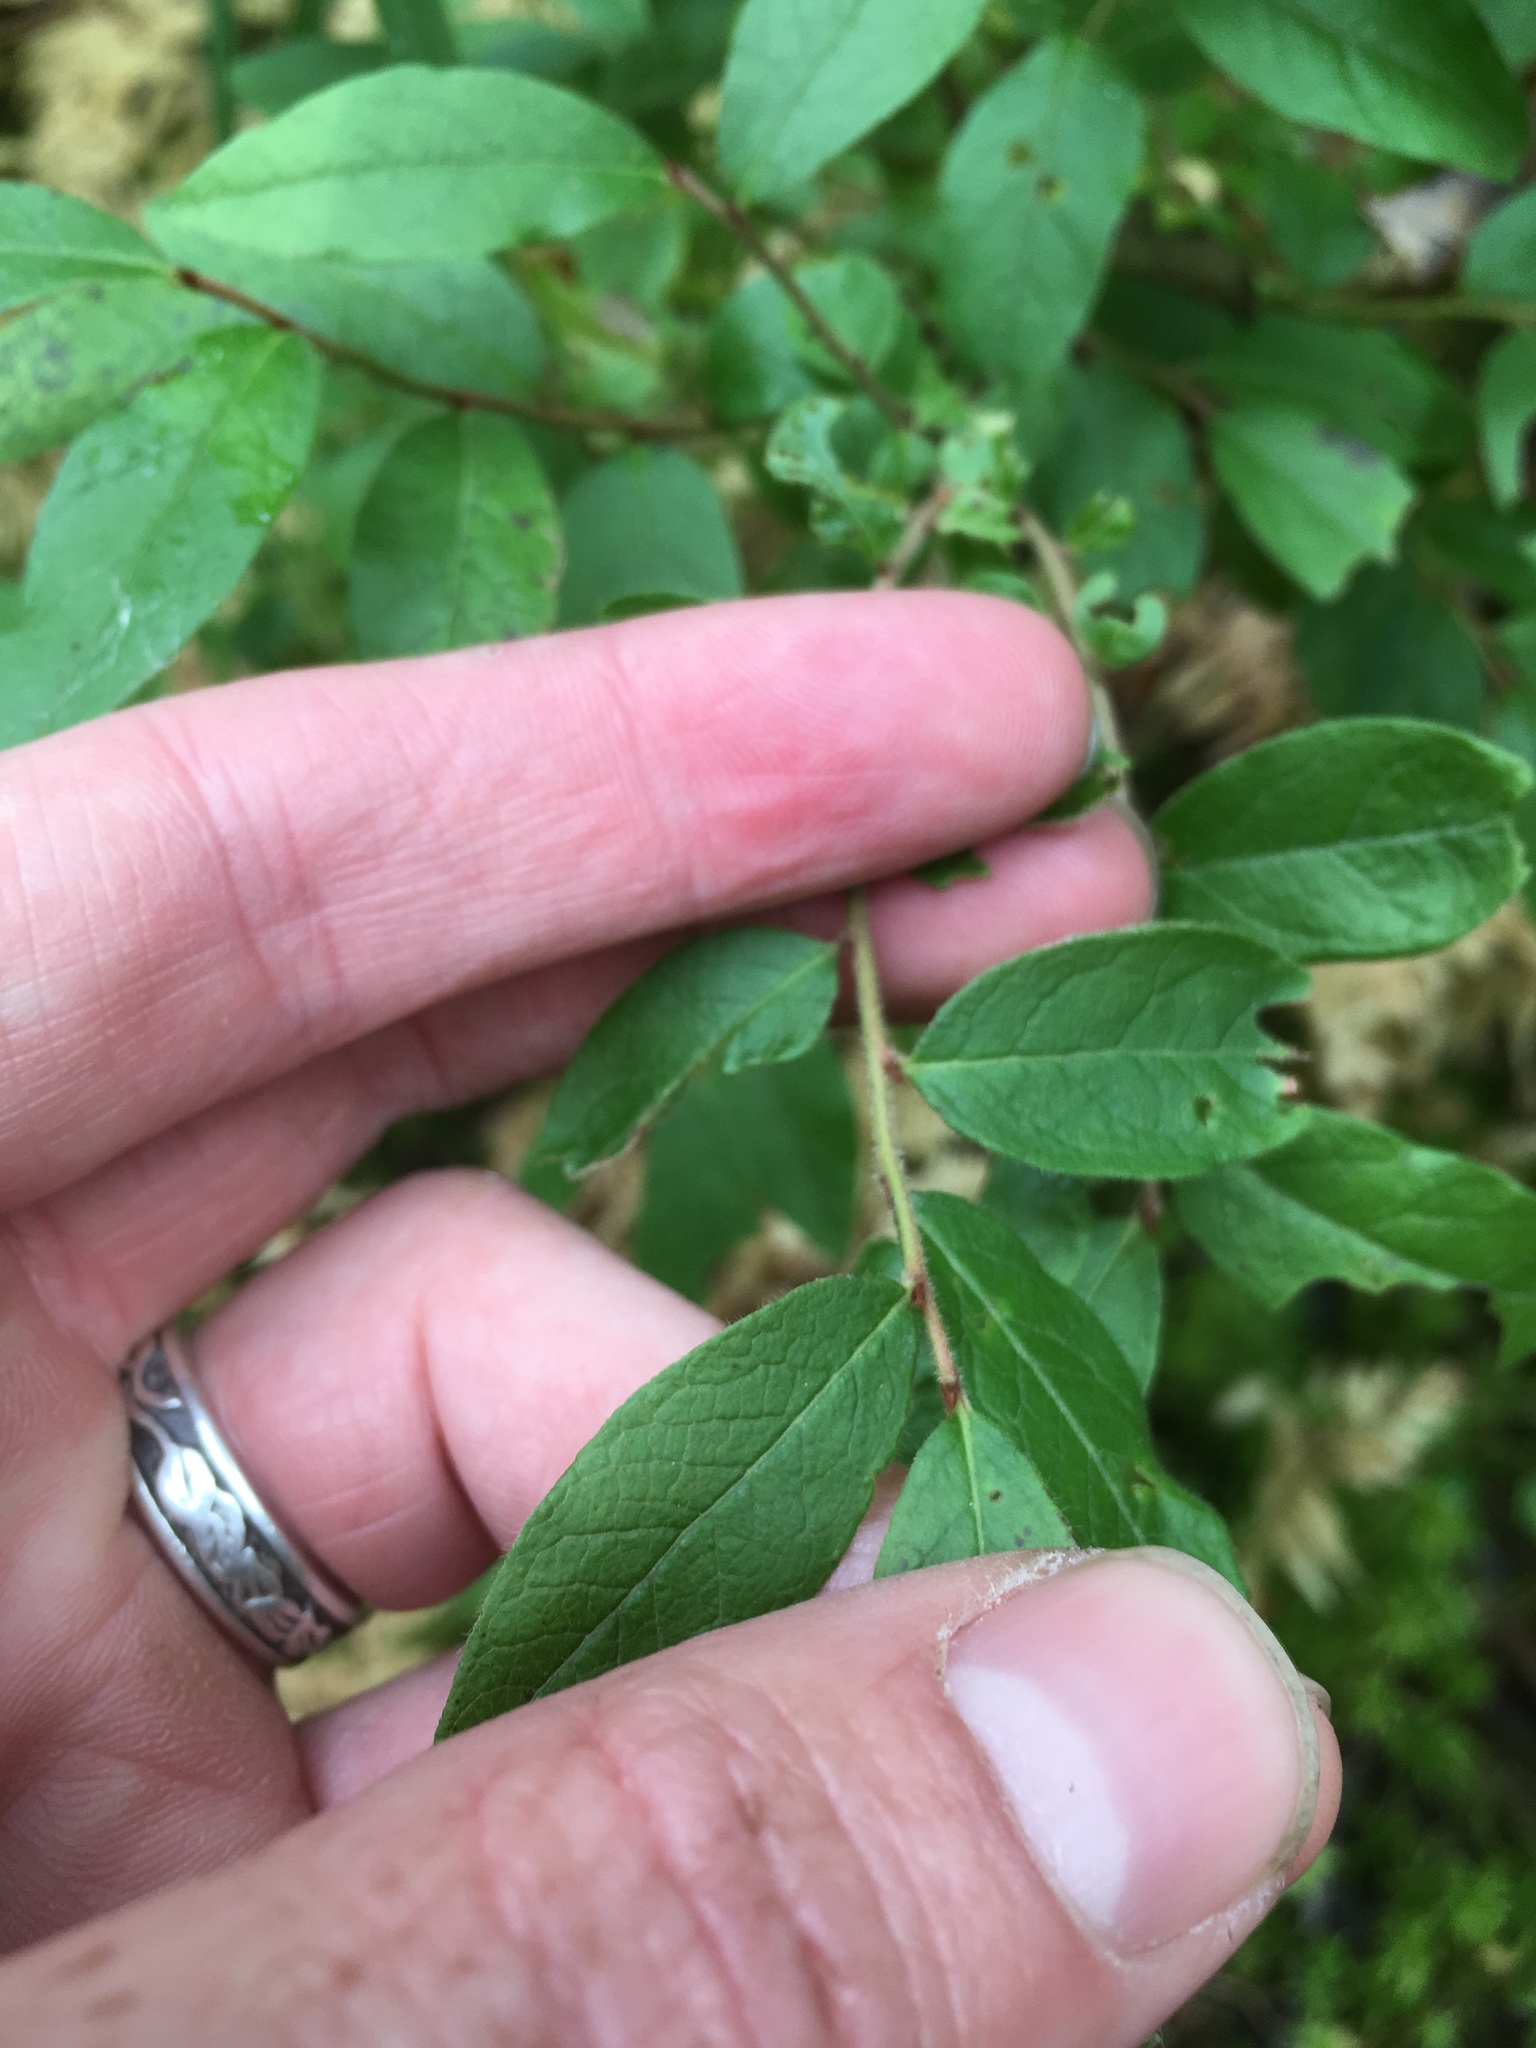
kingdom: Plantae
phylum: Tracheophyta
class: Magnoliopsida
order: Ericales
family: Ericaceae
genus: Vaccinium
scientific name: Vaccinium myrtilloides
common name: Canada blueberry
